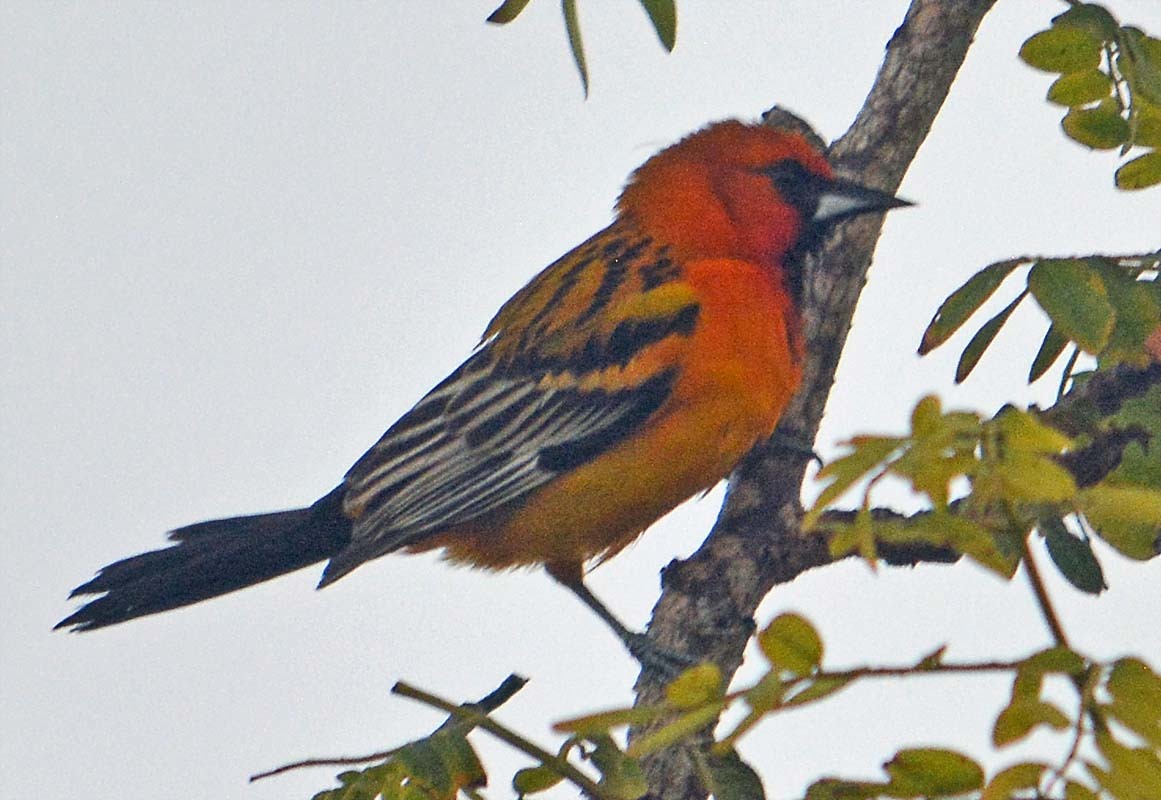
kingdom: Animalia
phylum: Chordata
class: Aves
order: Passeriformes
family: Icteridae
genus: Icterus
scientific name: Icterus pustulatus
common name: Streak-backed oriole
